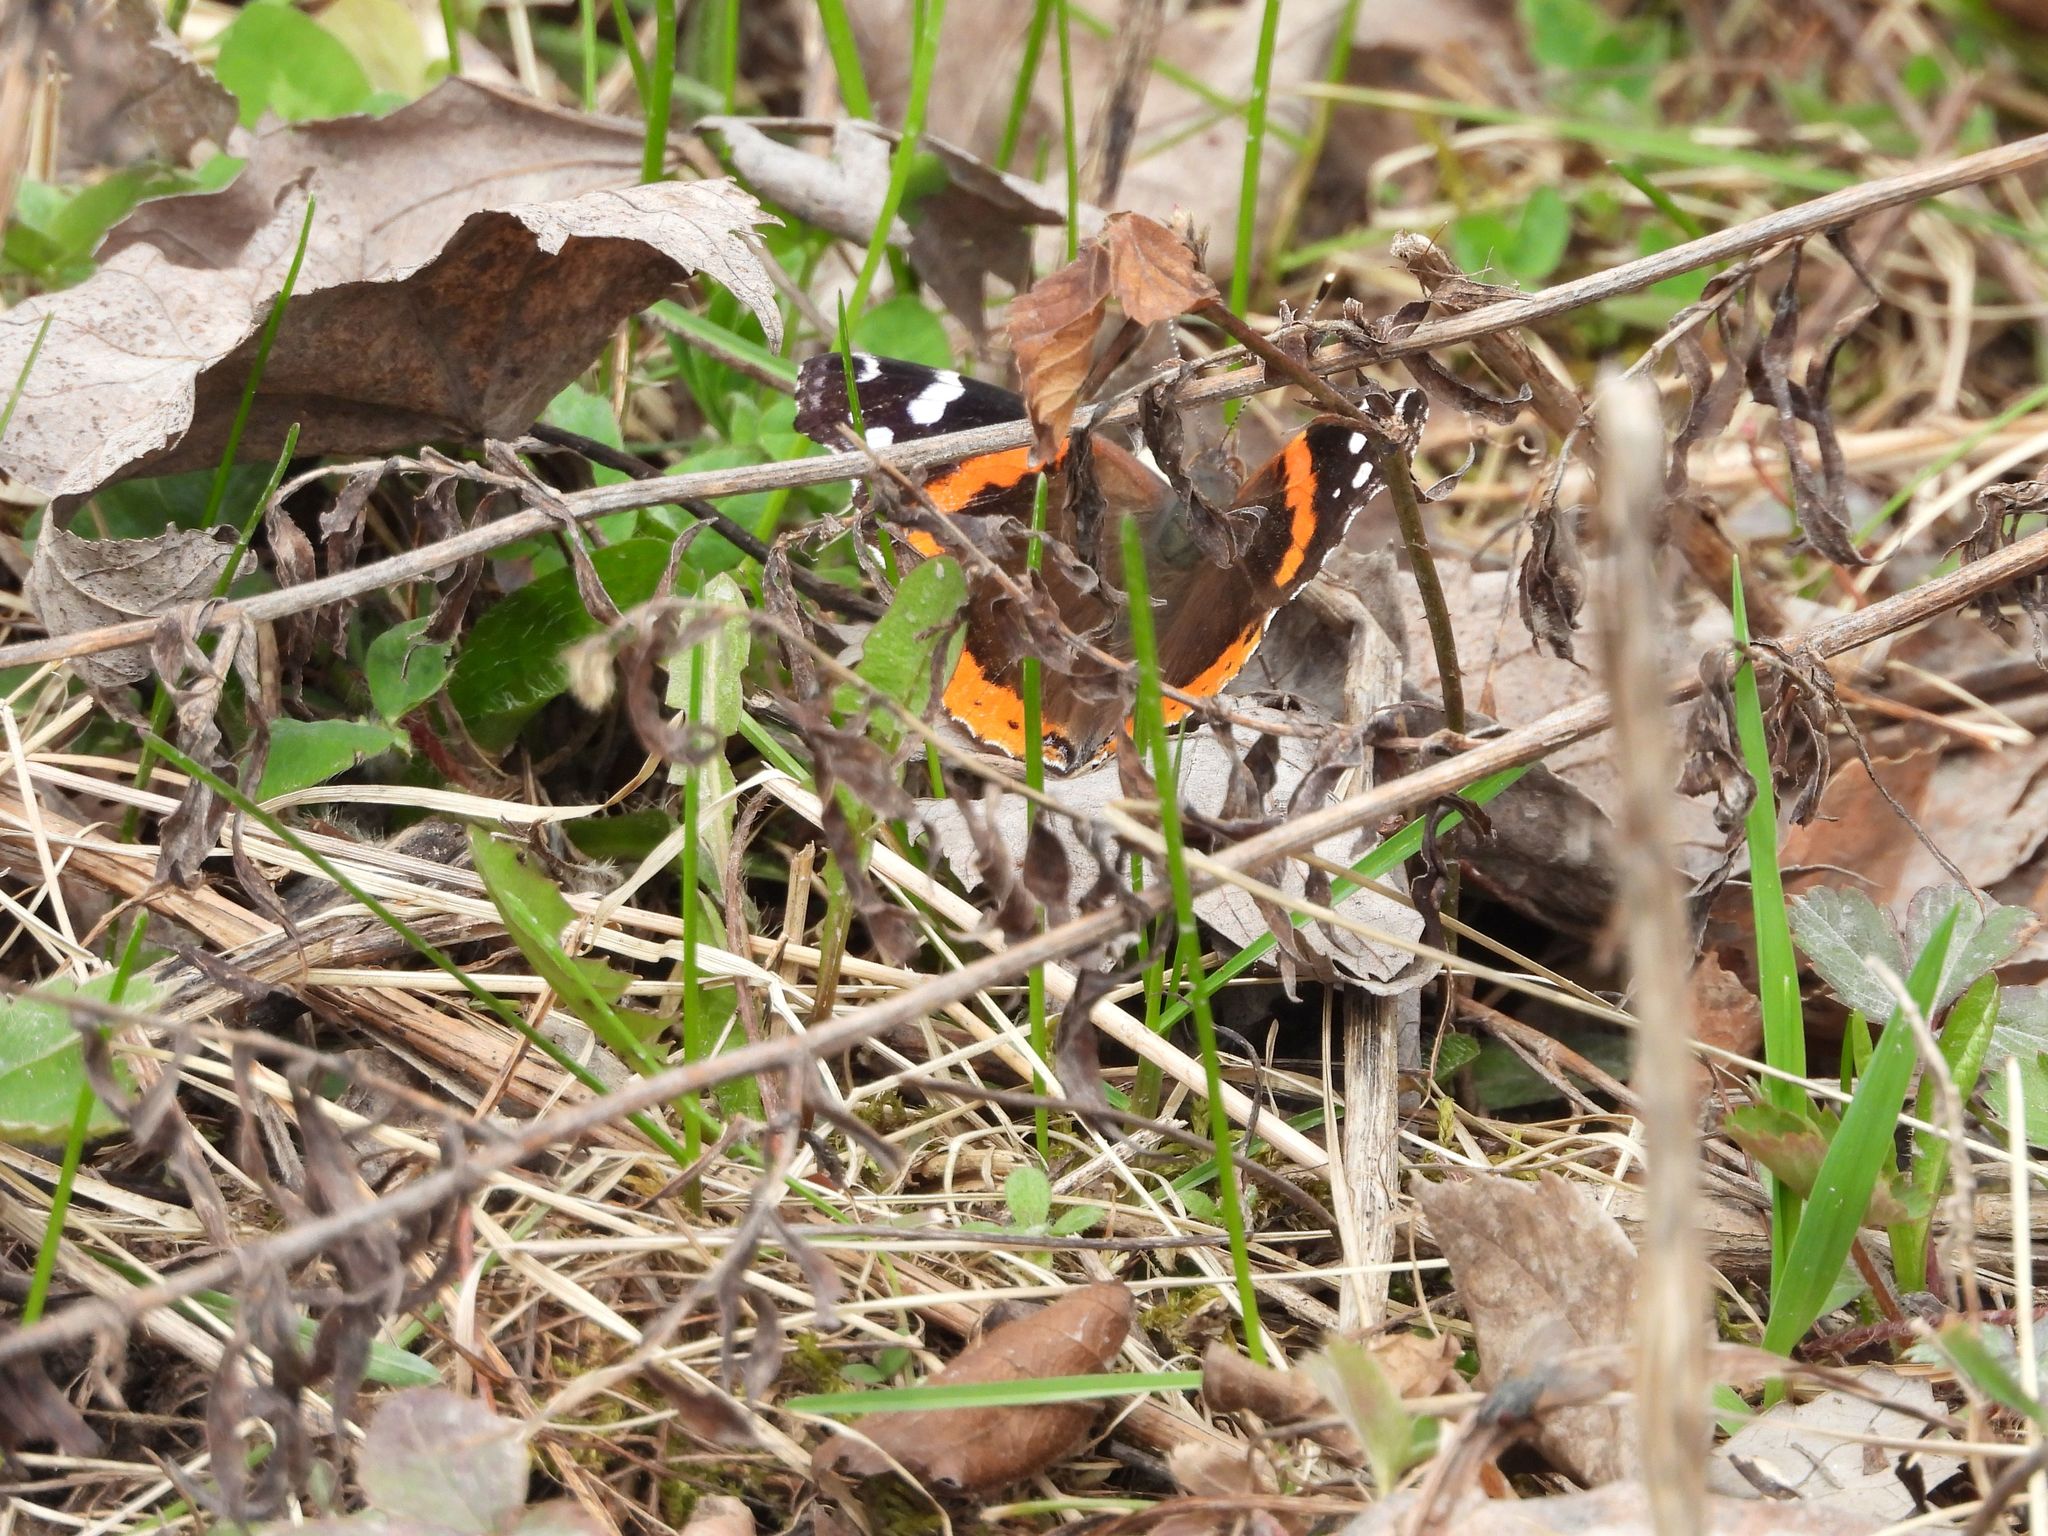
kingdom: Animalia
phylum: Arthropoda
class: Insecta
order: Lepidoptera
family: Nymphalidae
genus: Vanessa
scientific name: Vanessa atalanta
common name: Red admiral
